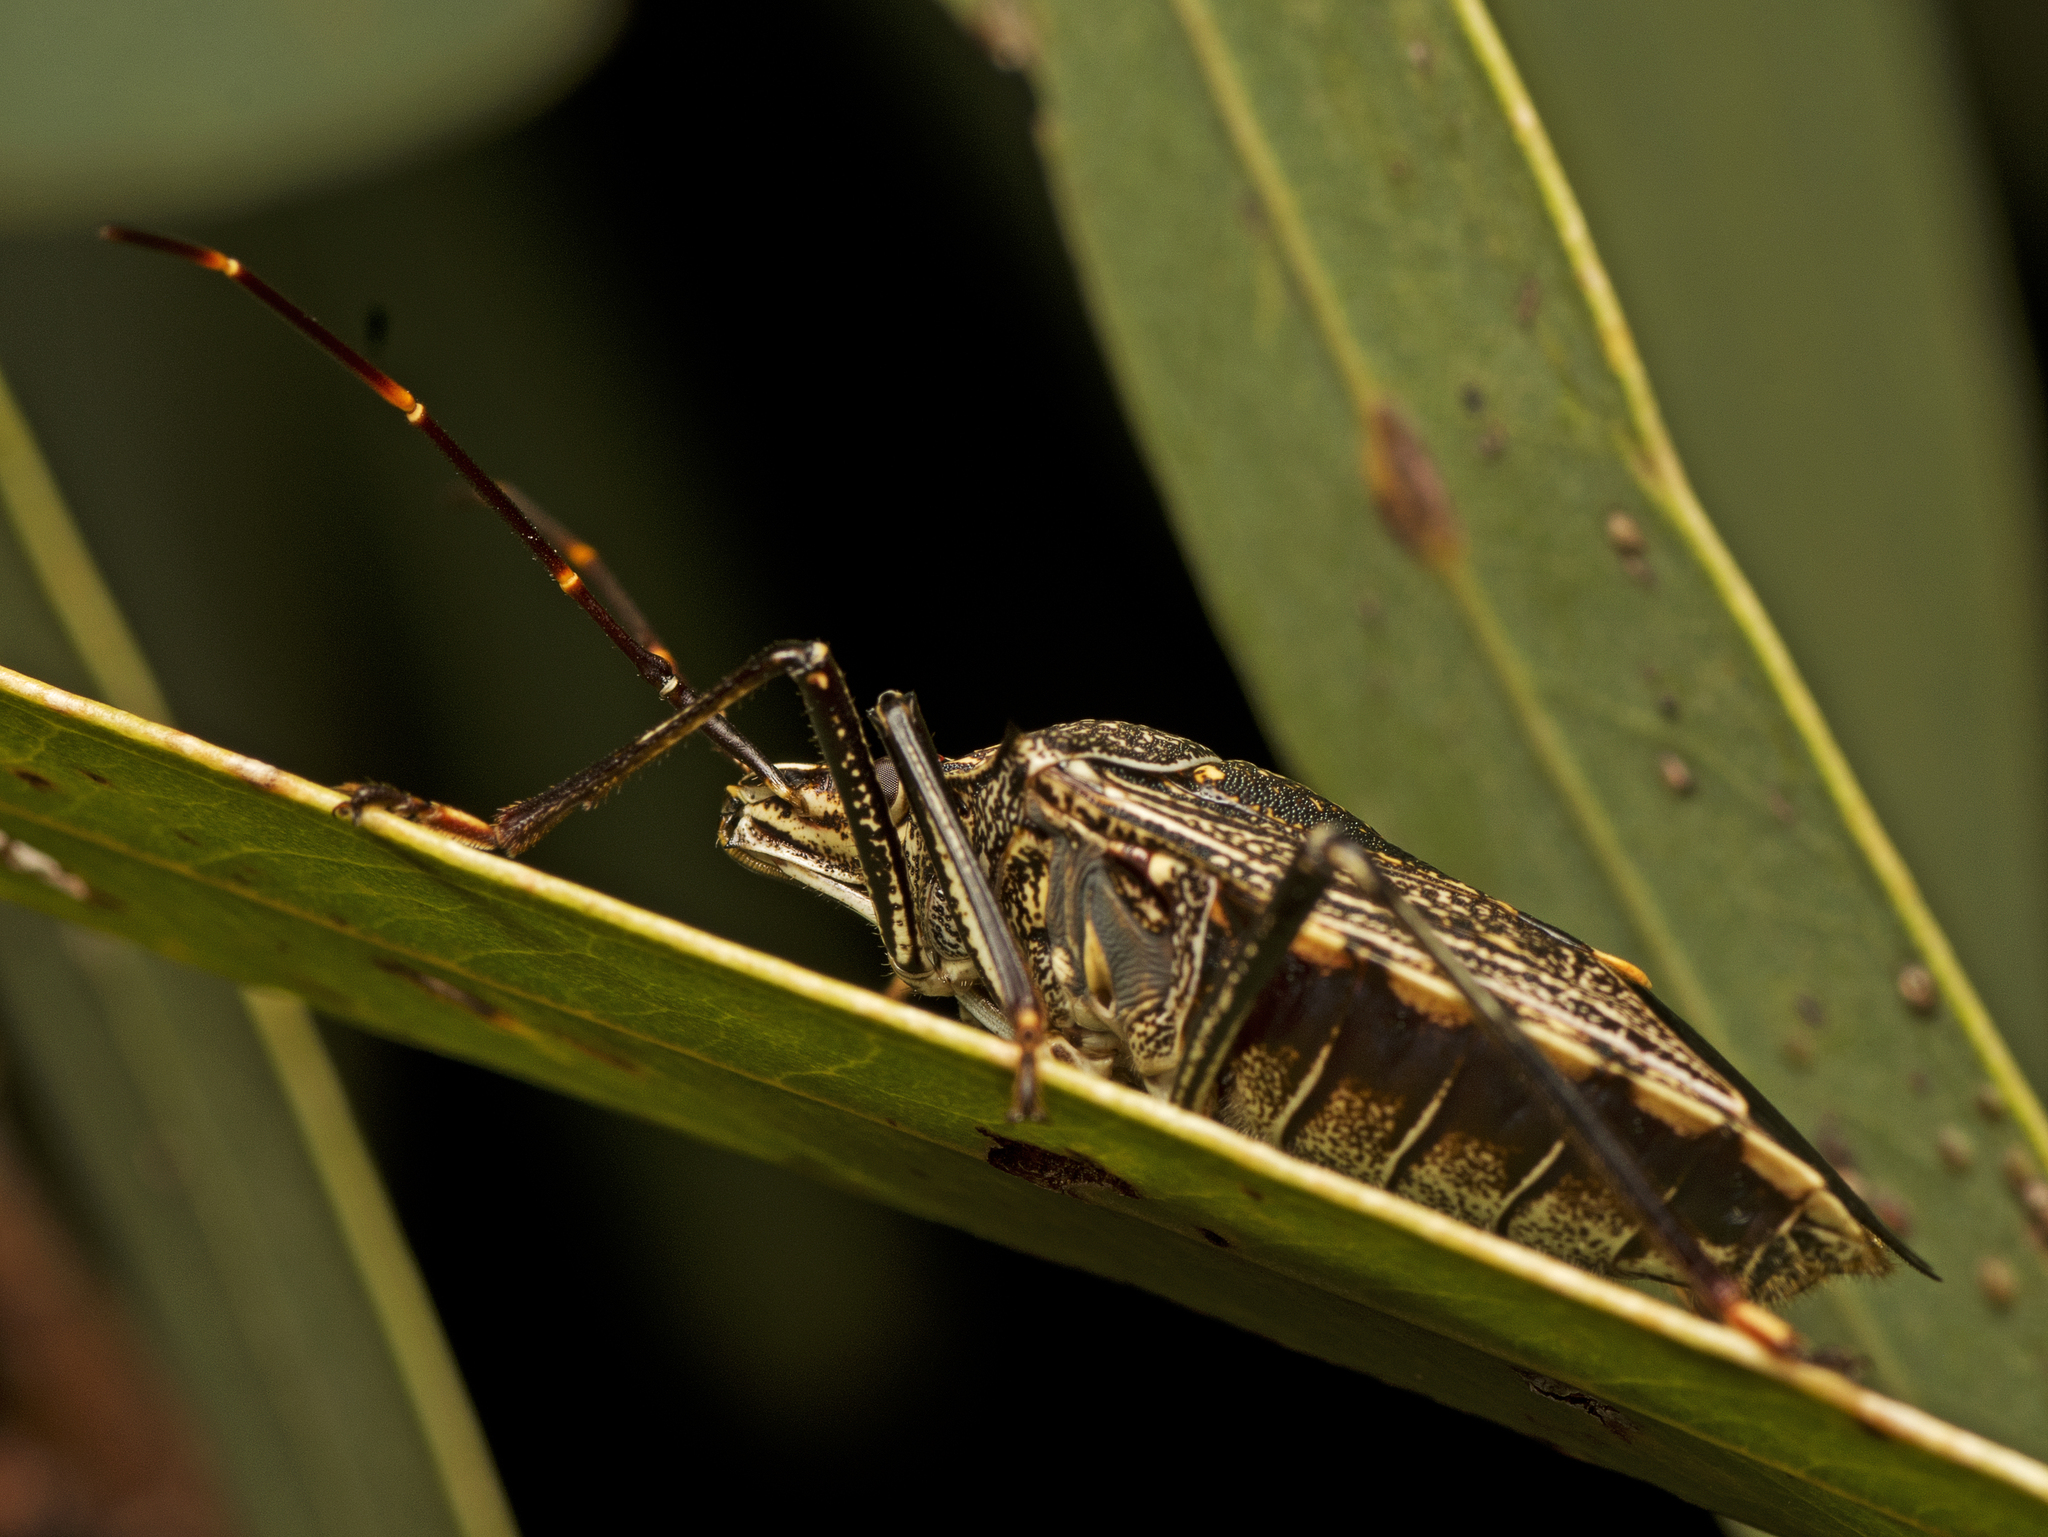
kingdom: Animalia
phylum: Arthropoda
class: Insecta
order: Hemiptera
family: Pentatomidae
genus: Poecilometis
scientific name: Poecilometis
